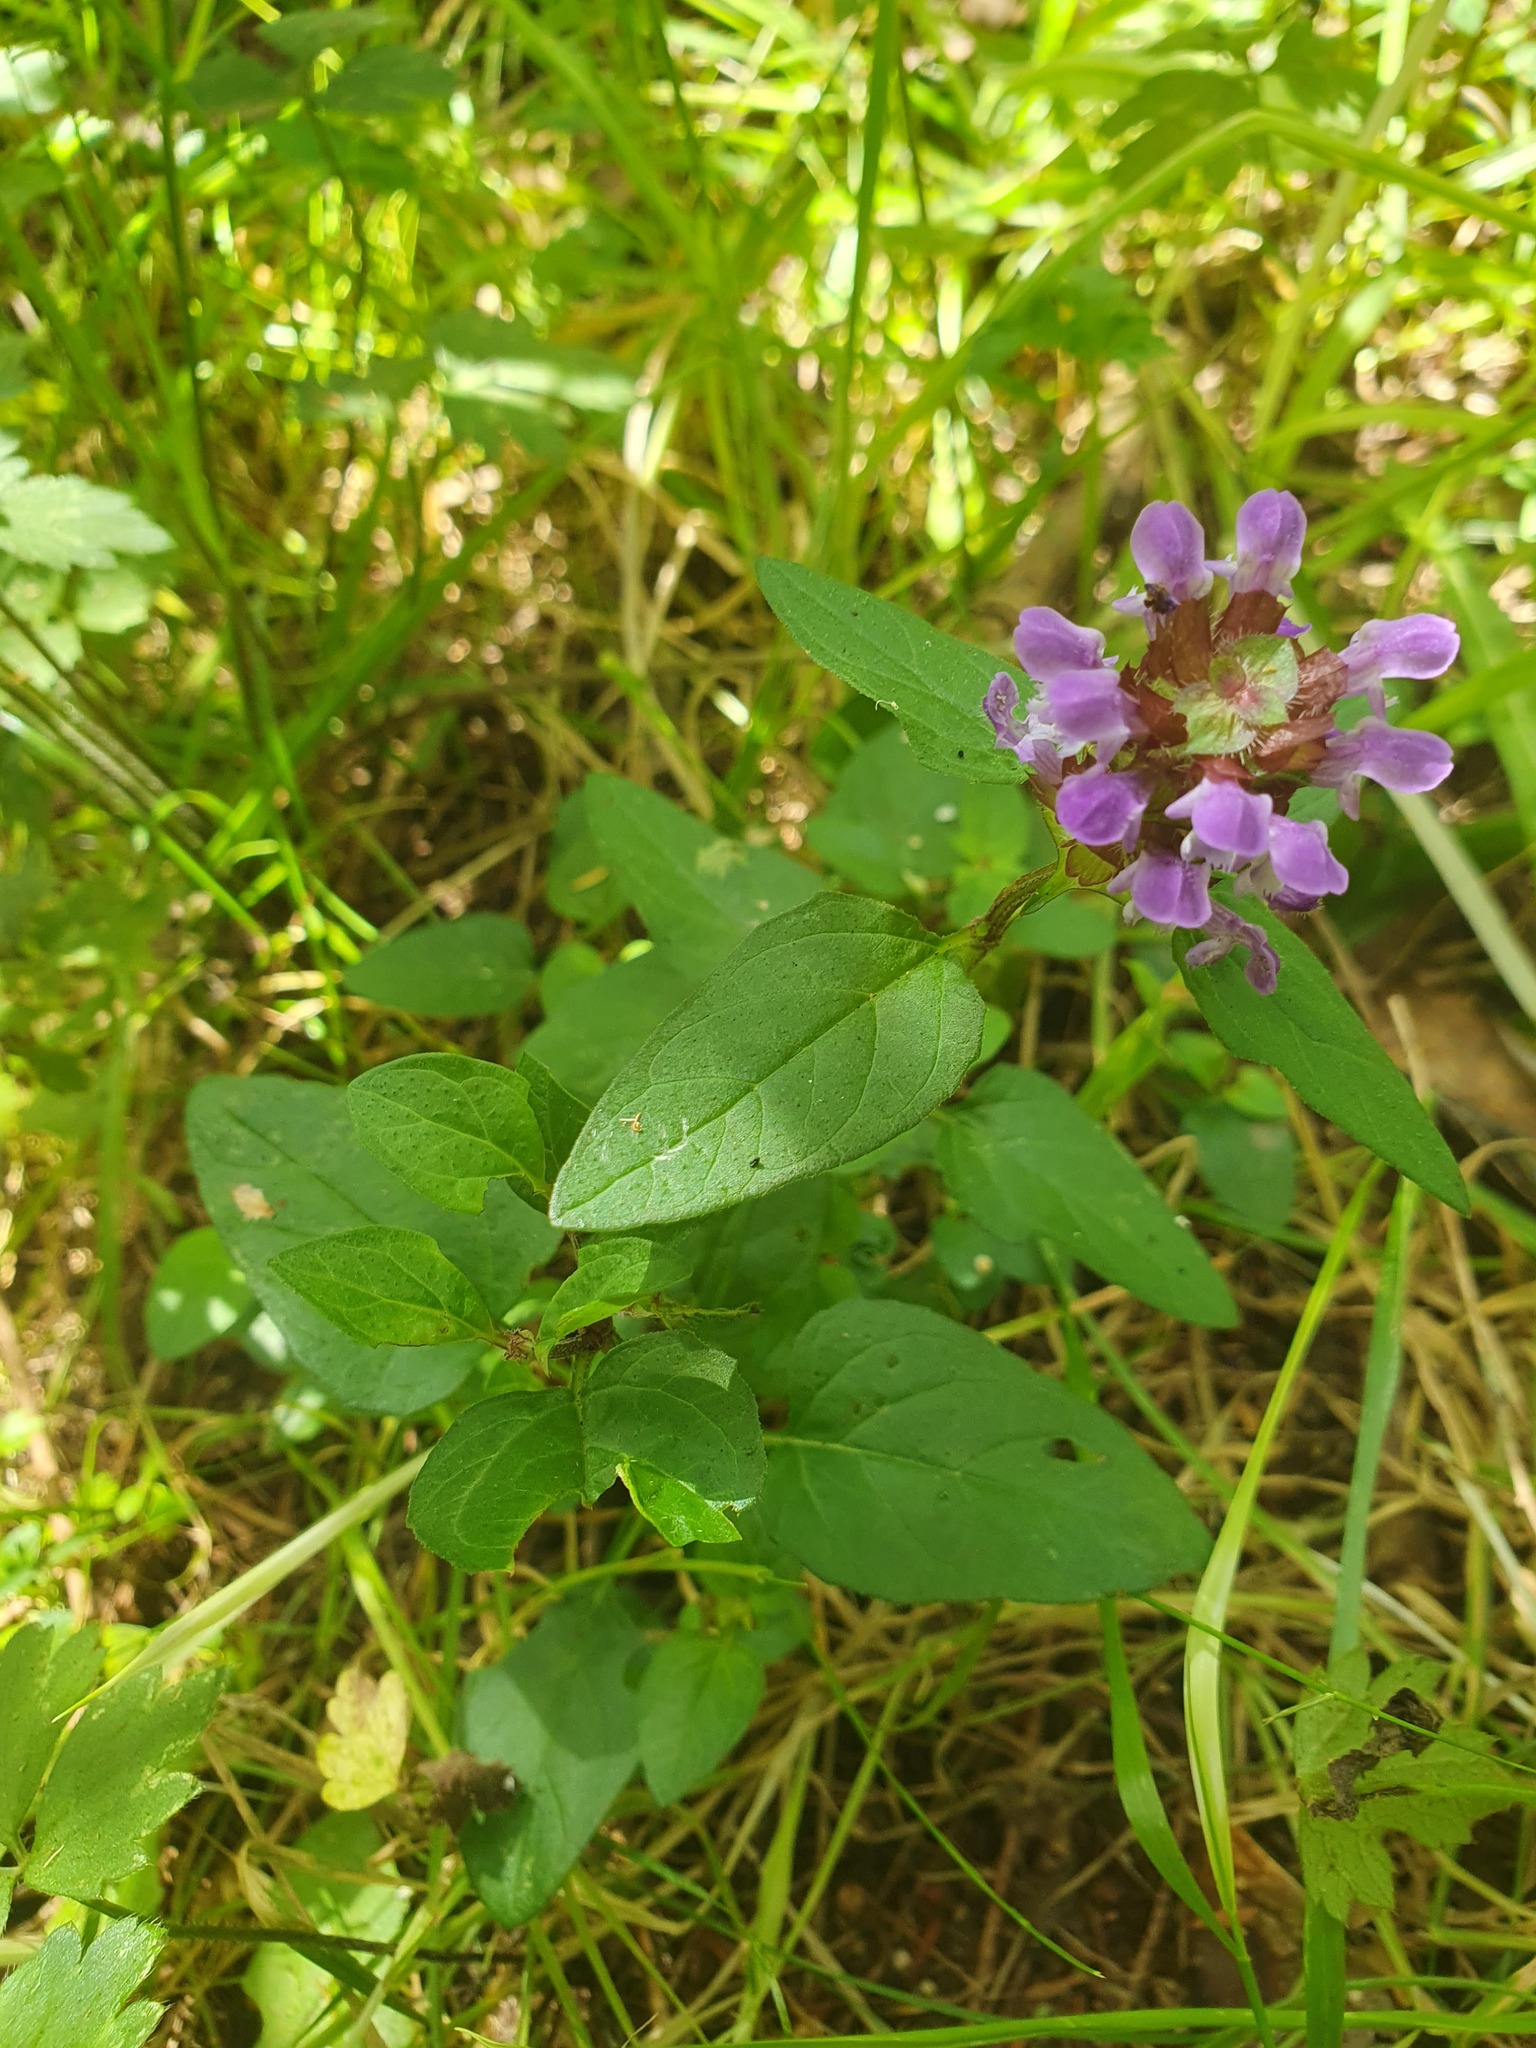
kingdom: Plantae
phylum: Tracheophyta
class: Magnoliopsida
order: Lamiales
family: Lamiaceae
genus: Prunella
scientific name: Prunella vulgaris
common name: Heal-all
